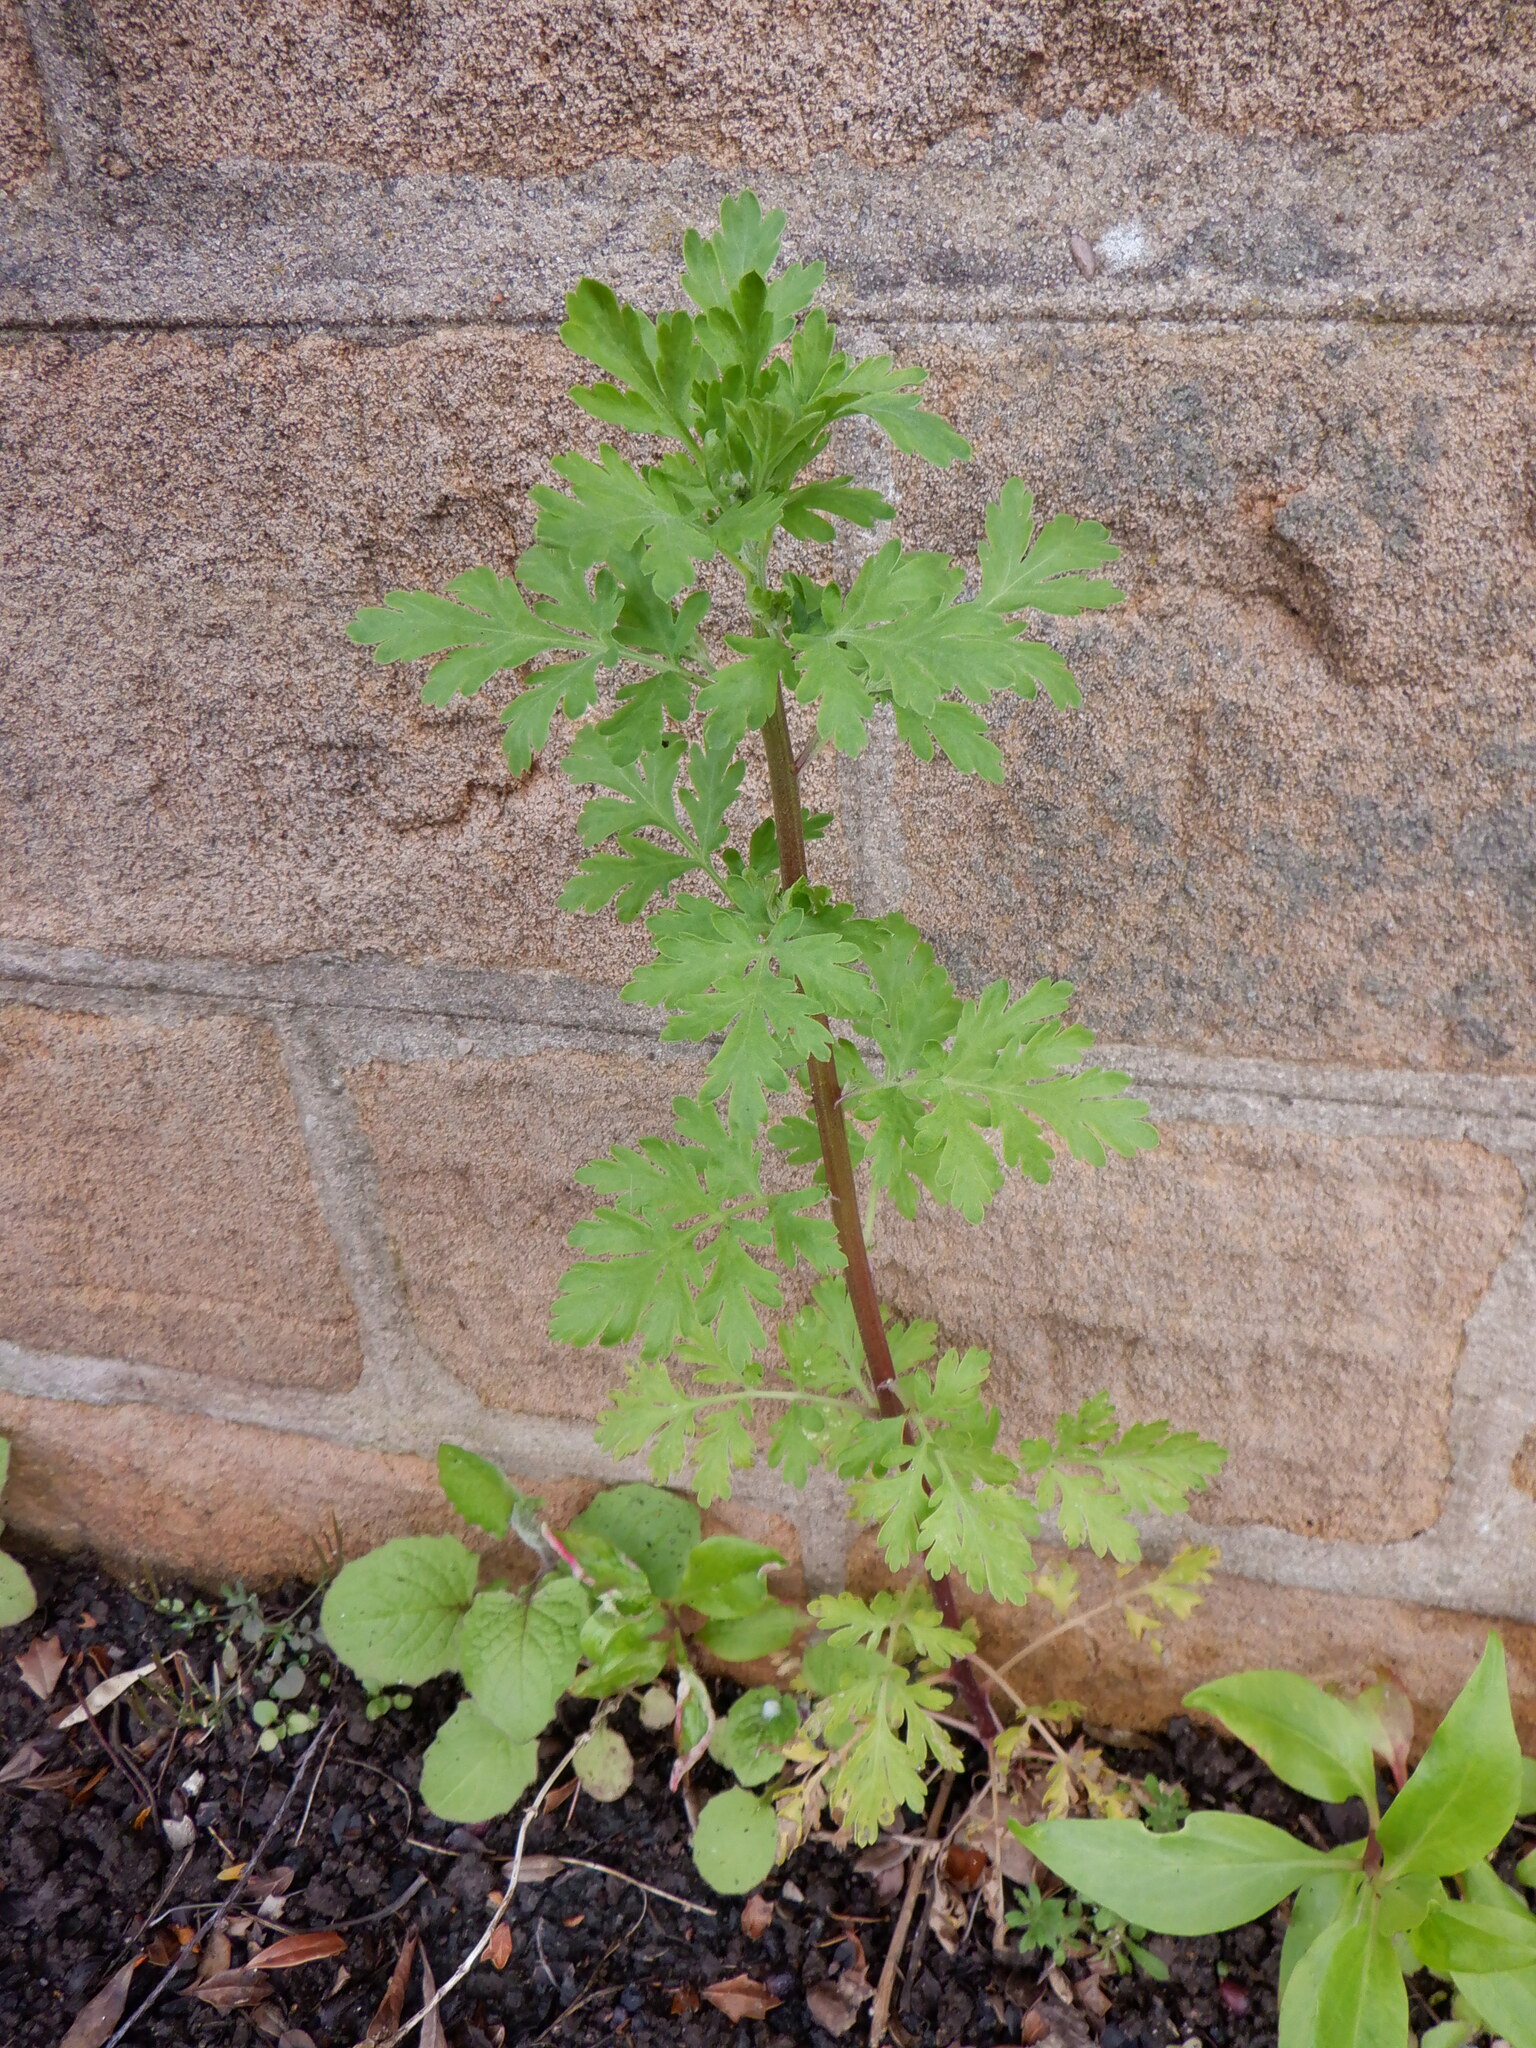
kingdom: Plantae
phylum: Tracheophyta
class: Magnoliopsida
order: Asterales
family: Asteraceae
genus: Tanacetum
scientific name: Tanacetum parthenium
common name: Feverfew
